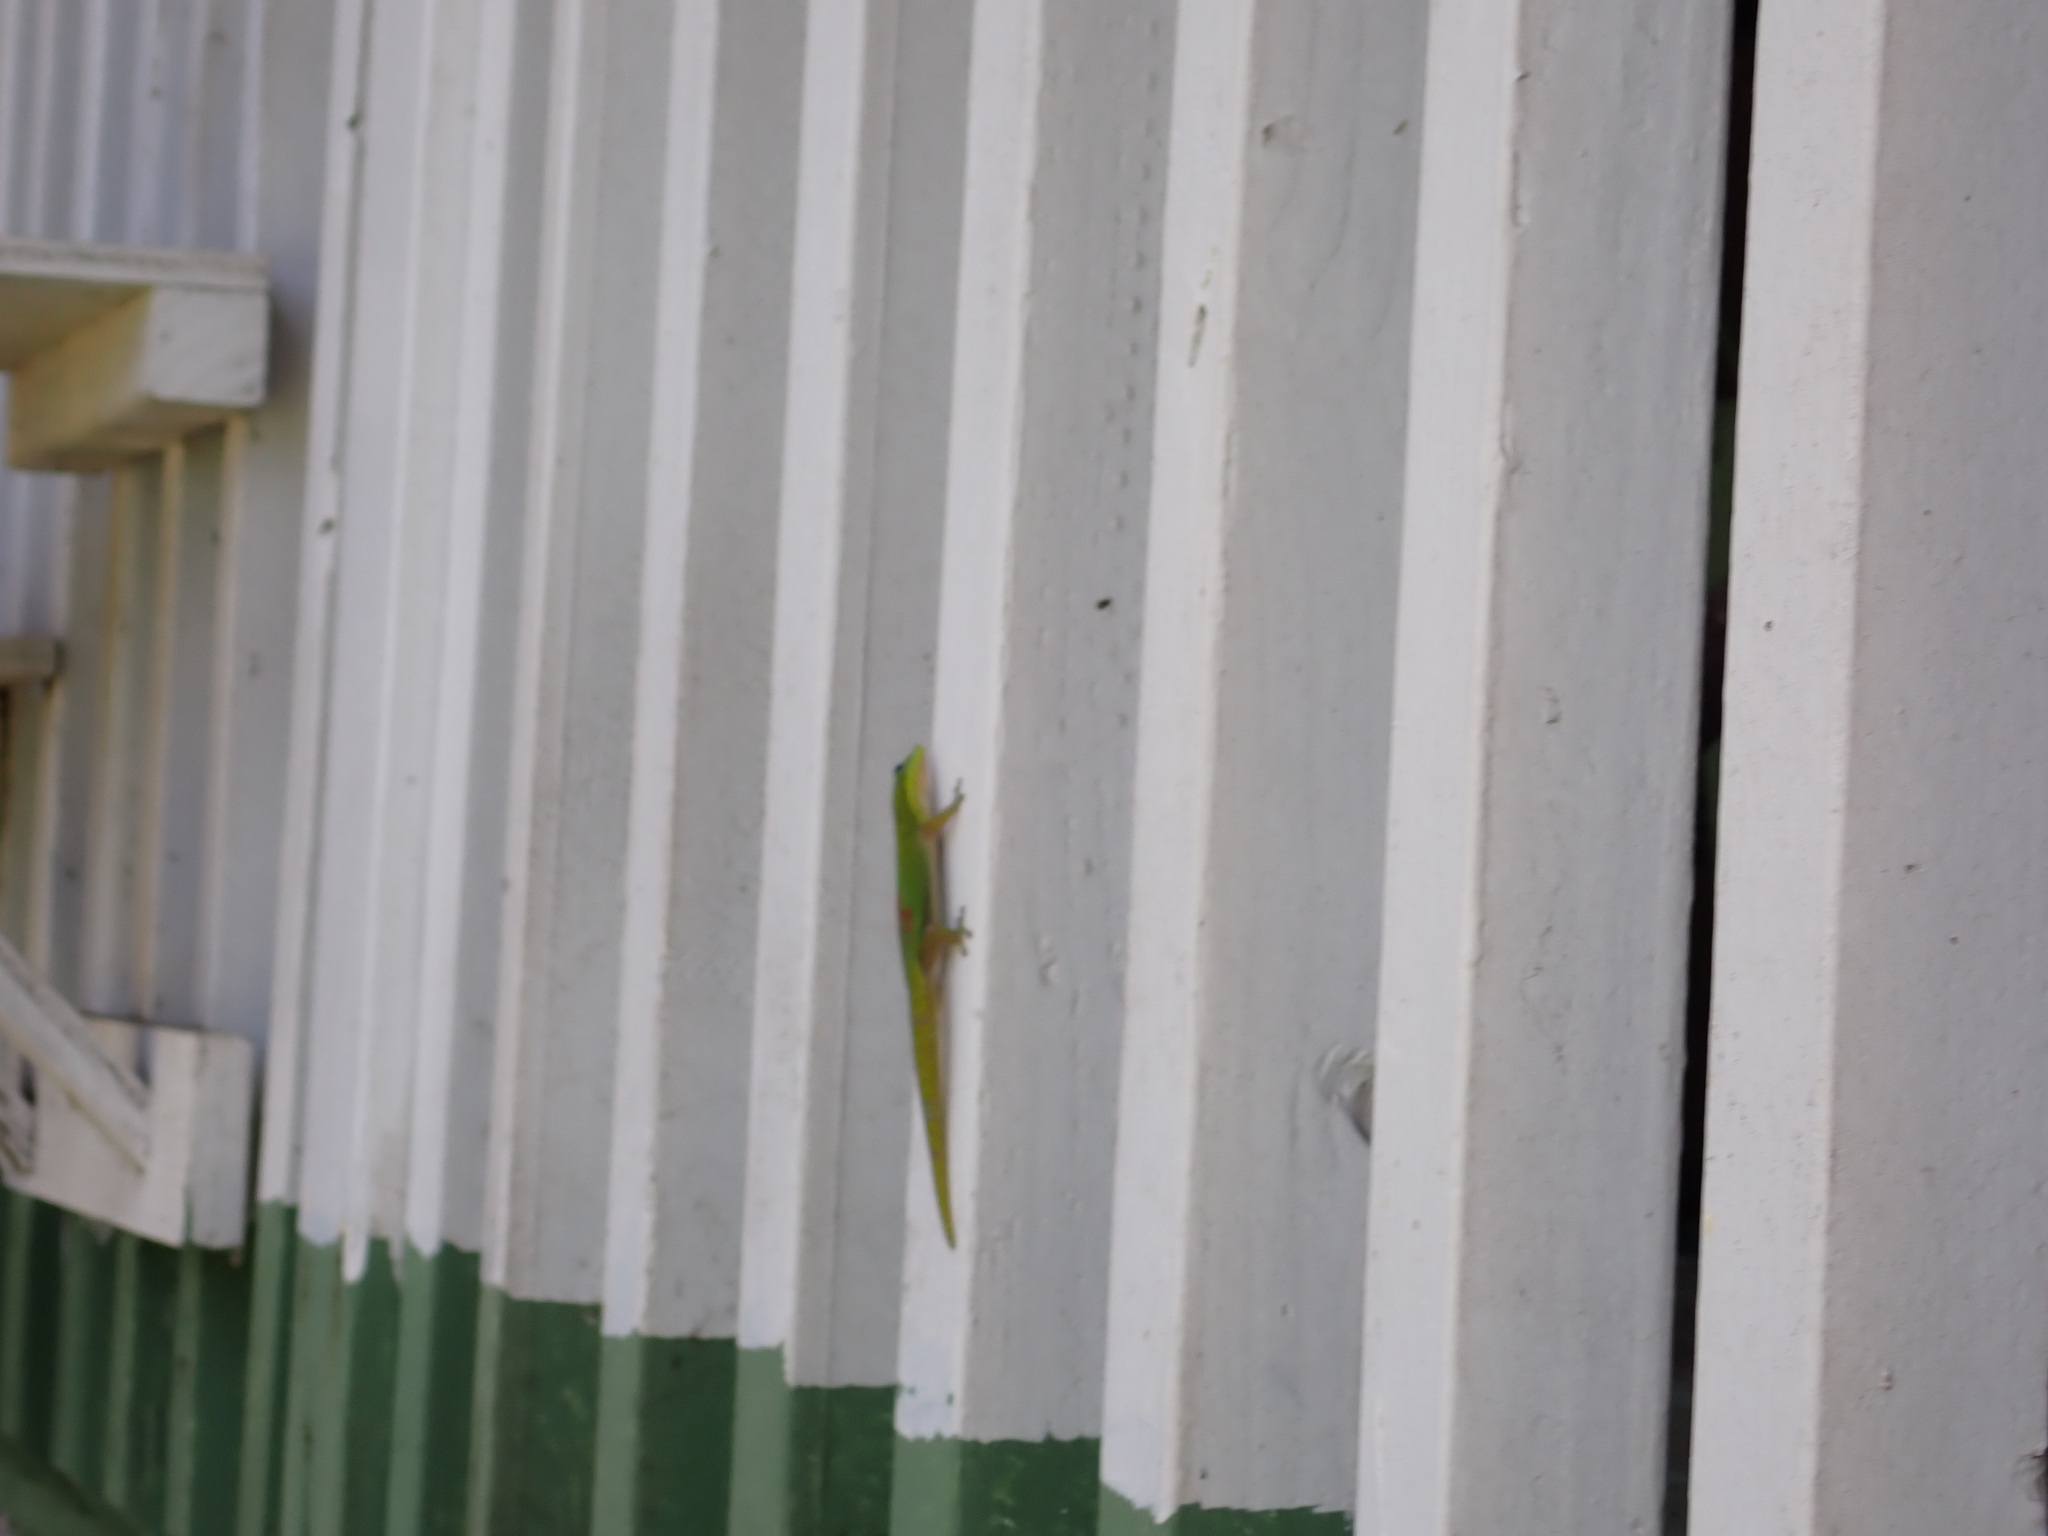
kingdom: Animalia
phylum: Chordata
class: Squamata
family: Gekkonidae
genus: Phelsuma
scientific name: Phelsuma laticauda
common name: Gold dust day gecko
